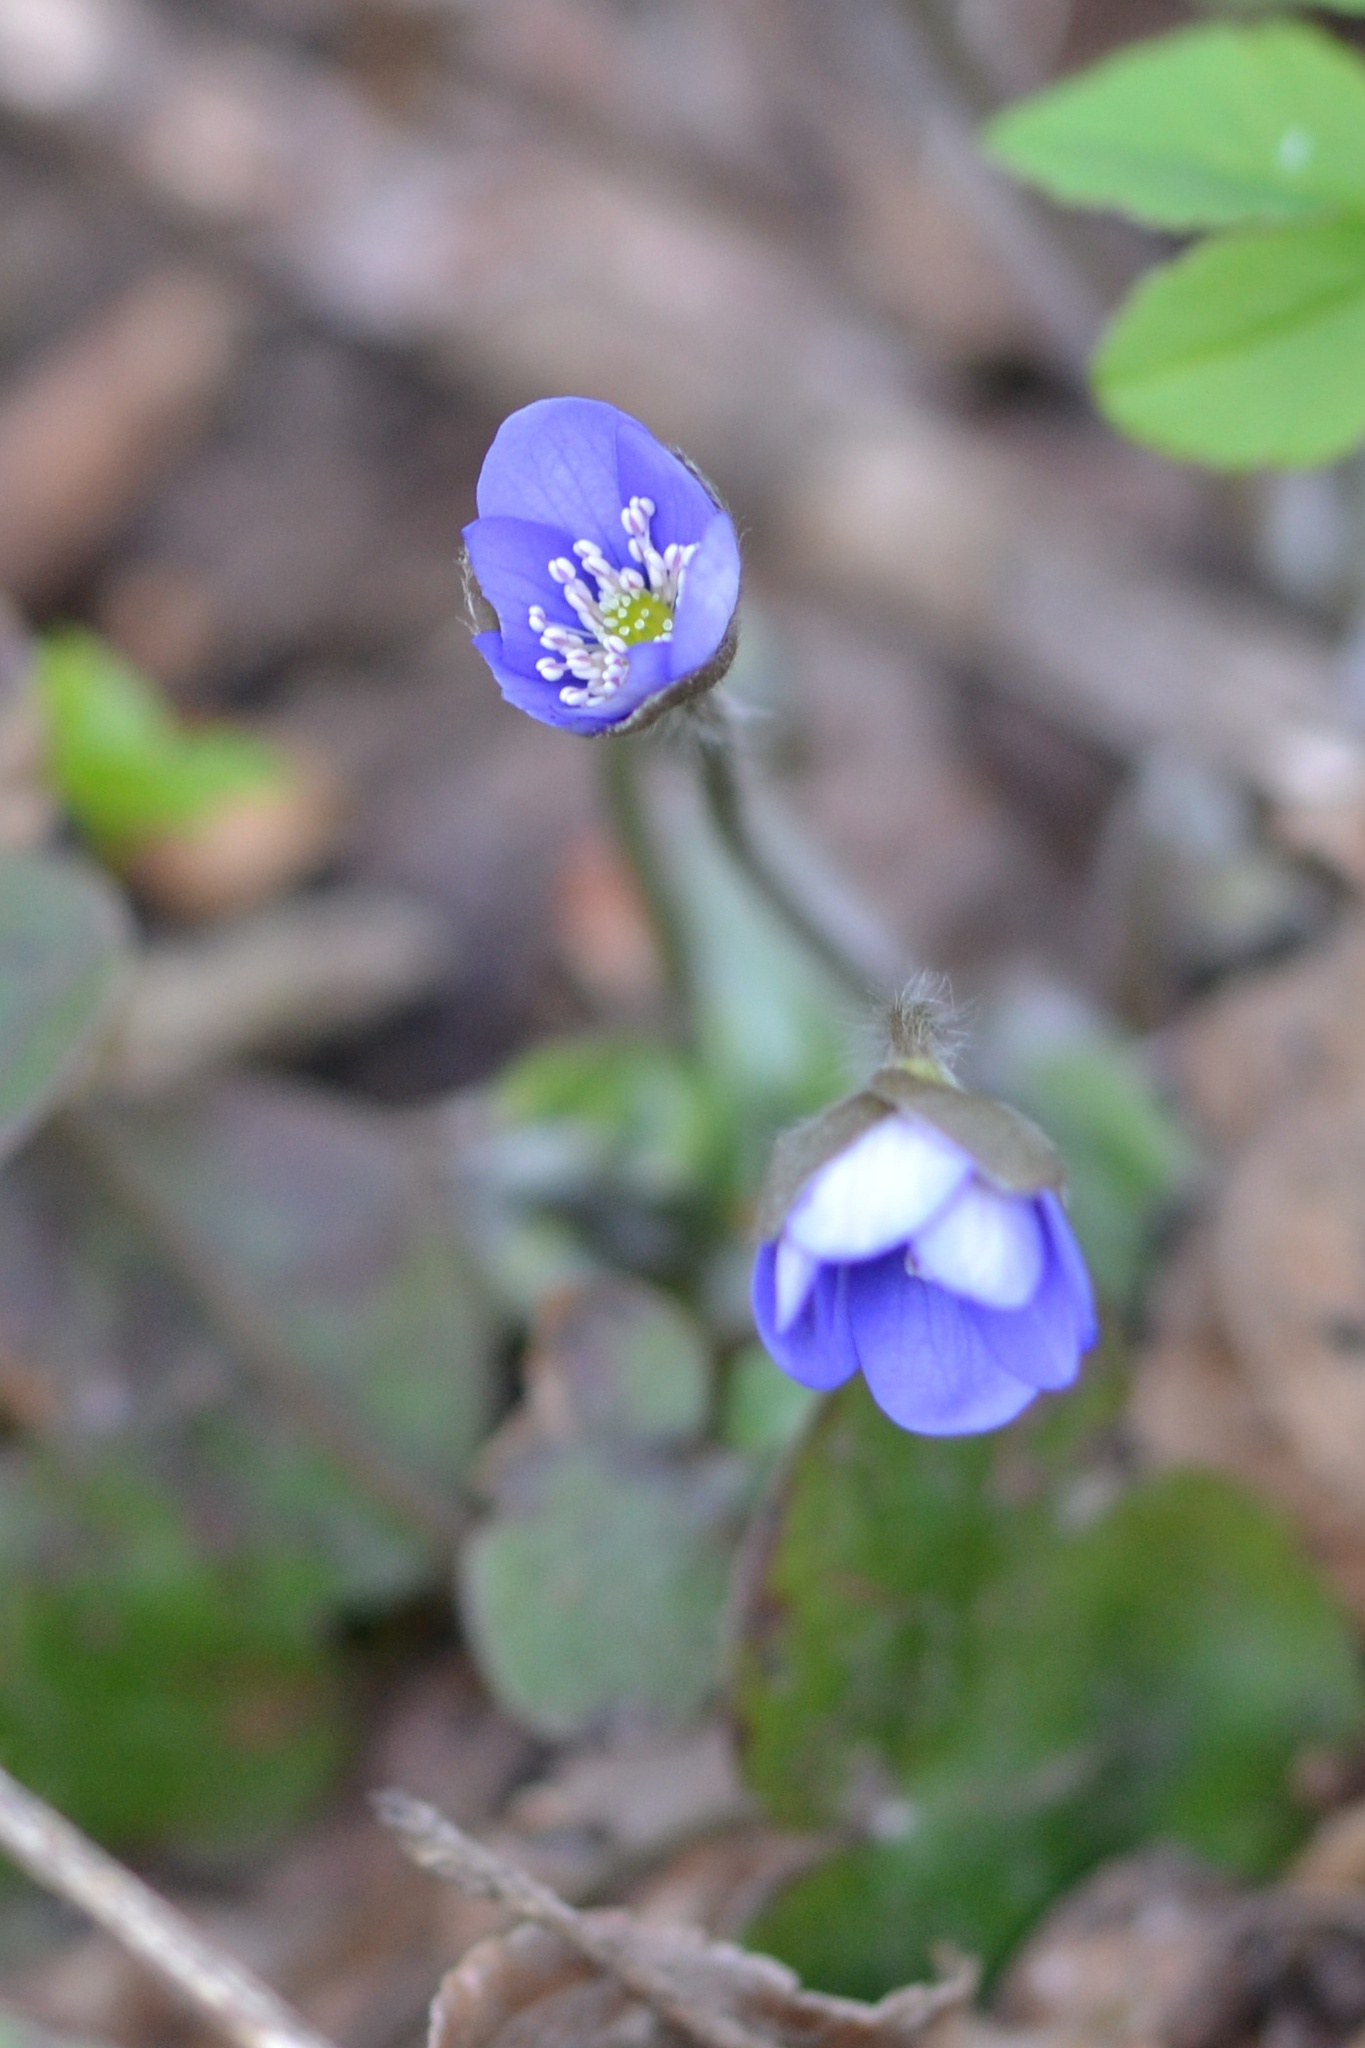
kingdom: Plantae
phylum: Tracheophyta
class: Magnoliopsida
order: Ranunculales
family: Ranunculaceae
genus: Hepatica
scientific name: Hepatica nobilis
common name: Liverleaf
